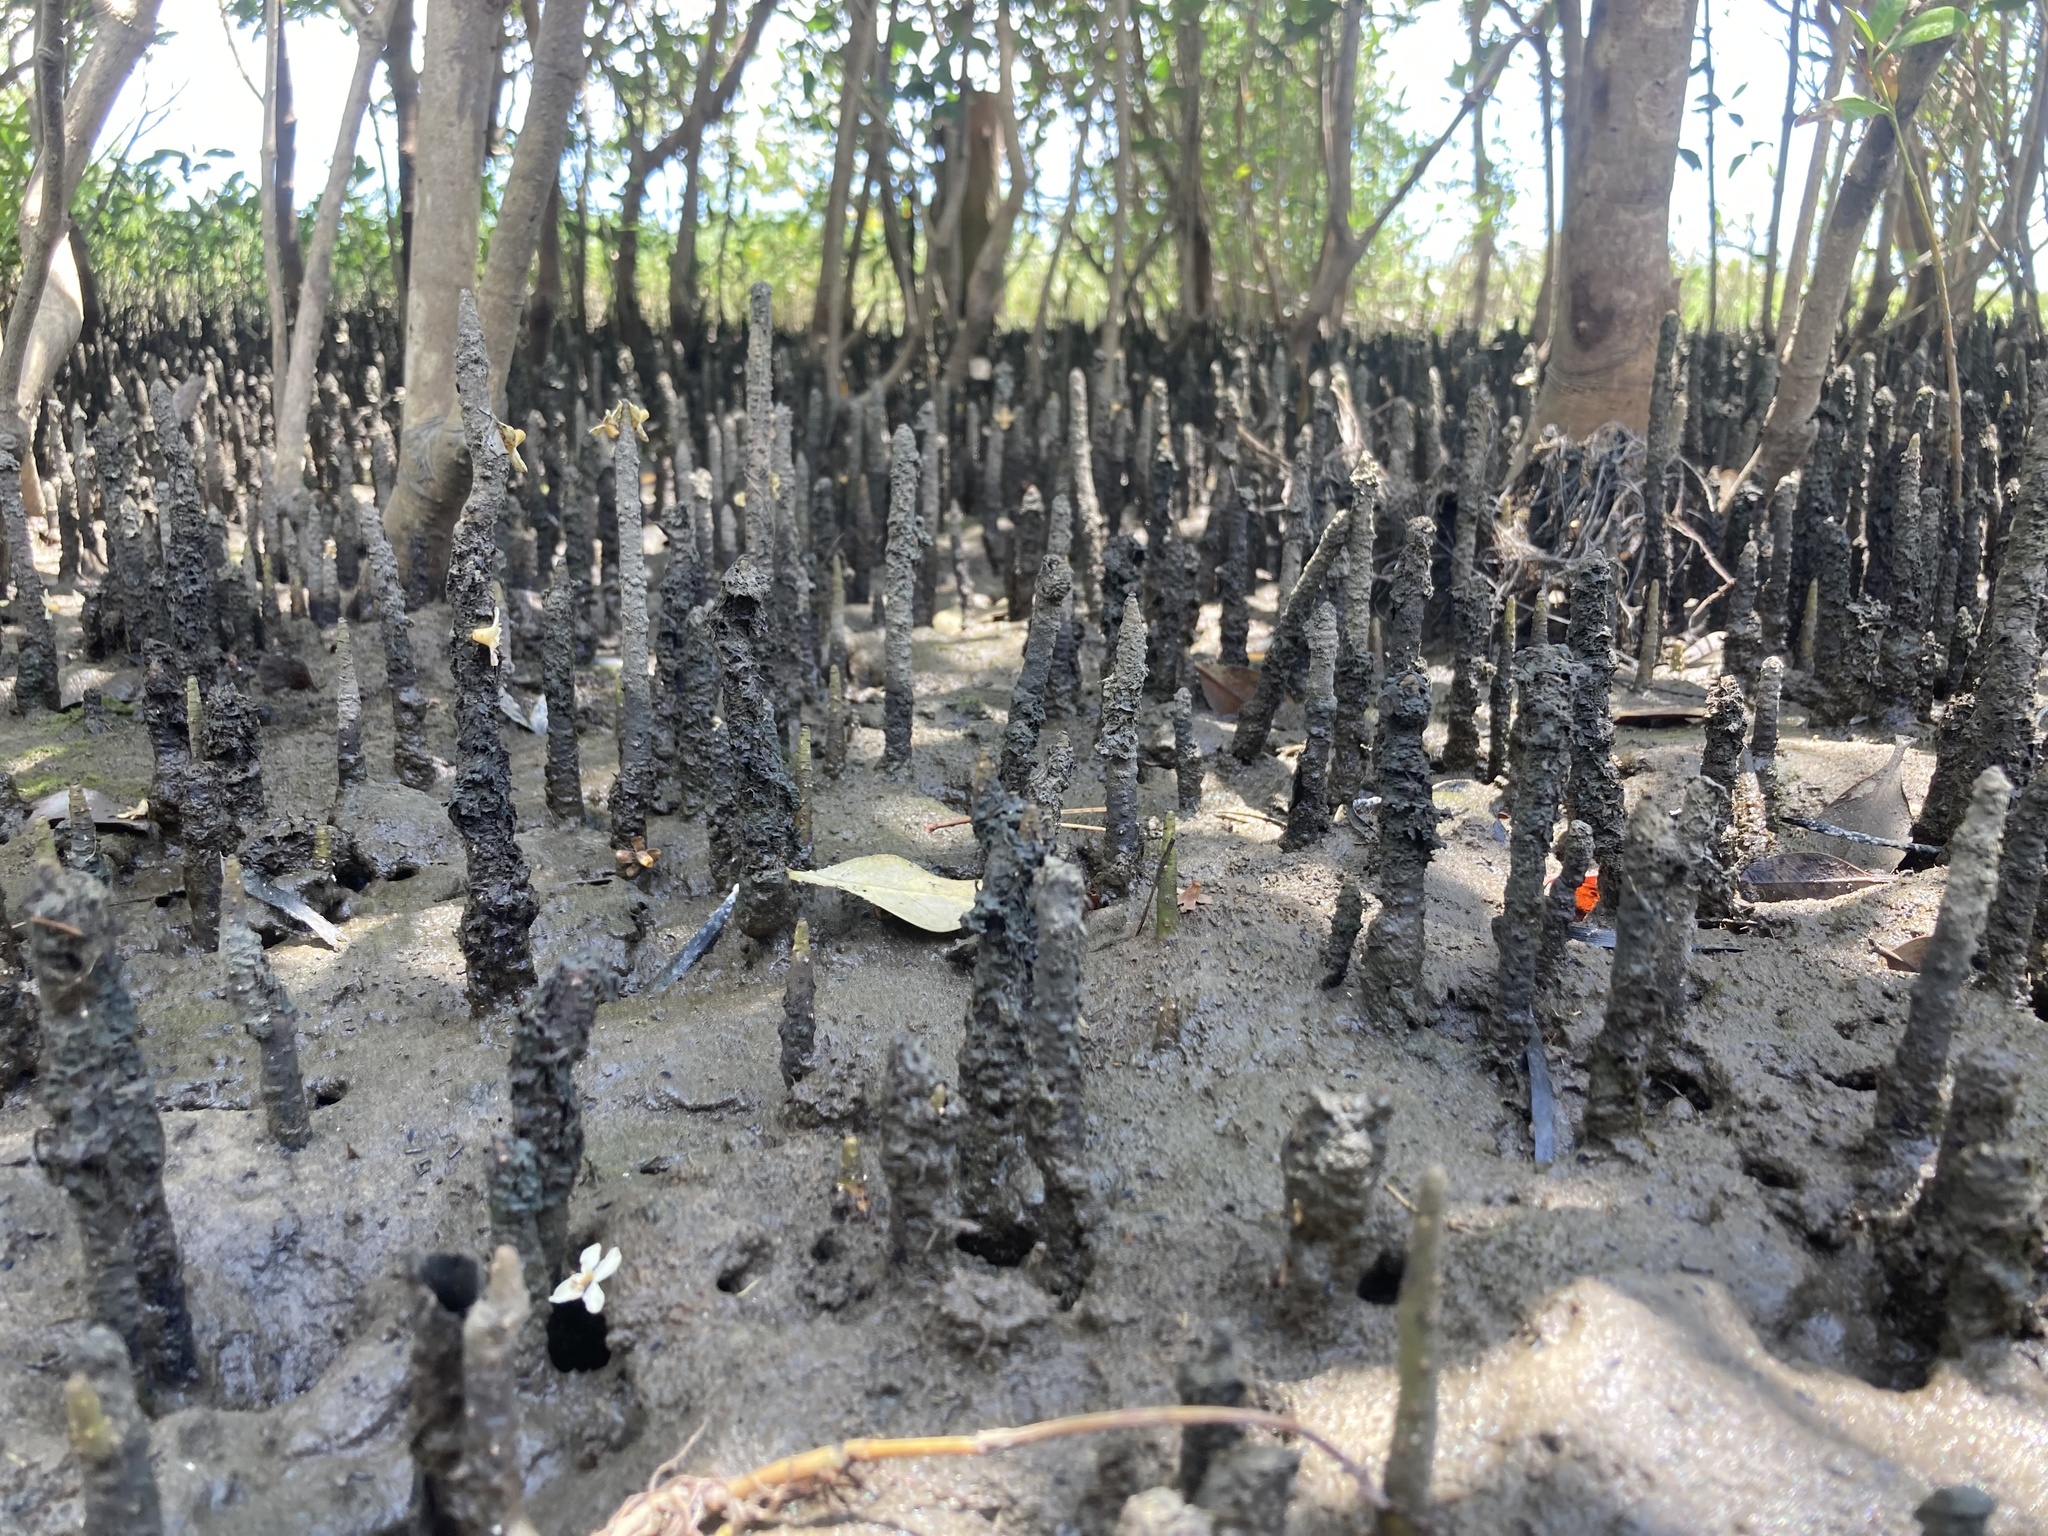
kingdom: Plantae
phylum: Tracheophyta
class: Magnoliopsida
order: Lamiales
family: Acanthaceae
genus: Avicennia
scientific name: Avicennia germinans
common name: Black mangrove
